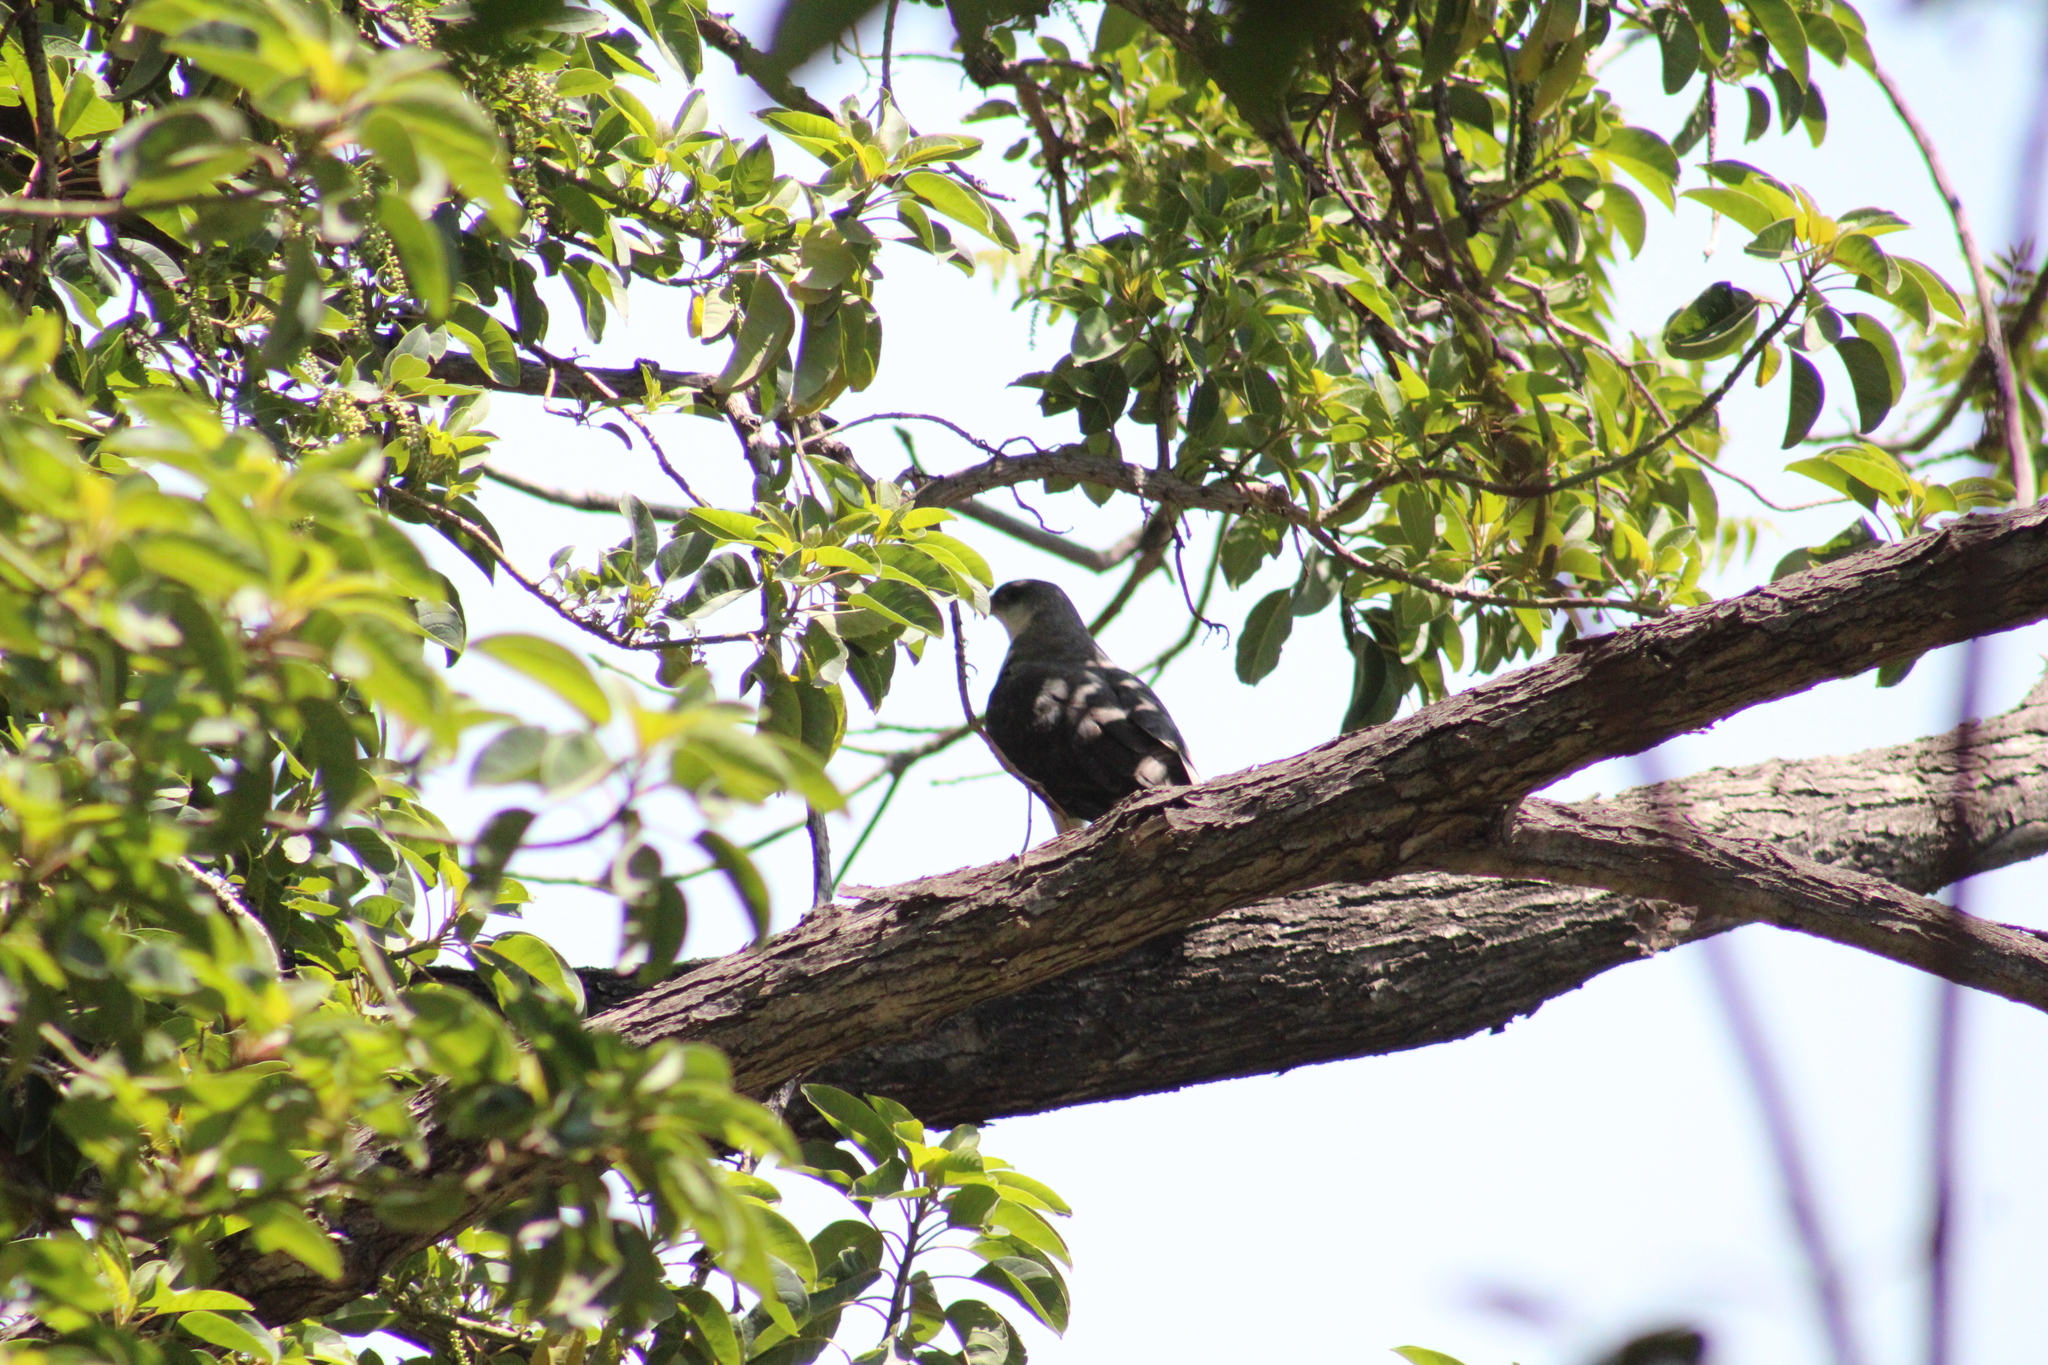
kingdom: Animalia
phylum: Chordata
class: Aves
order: Accipitriformes
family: Accipitridae
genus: Buteo
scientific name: Buteo polyosoma
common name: Variable hawk
